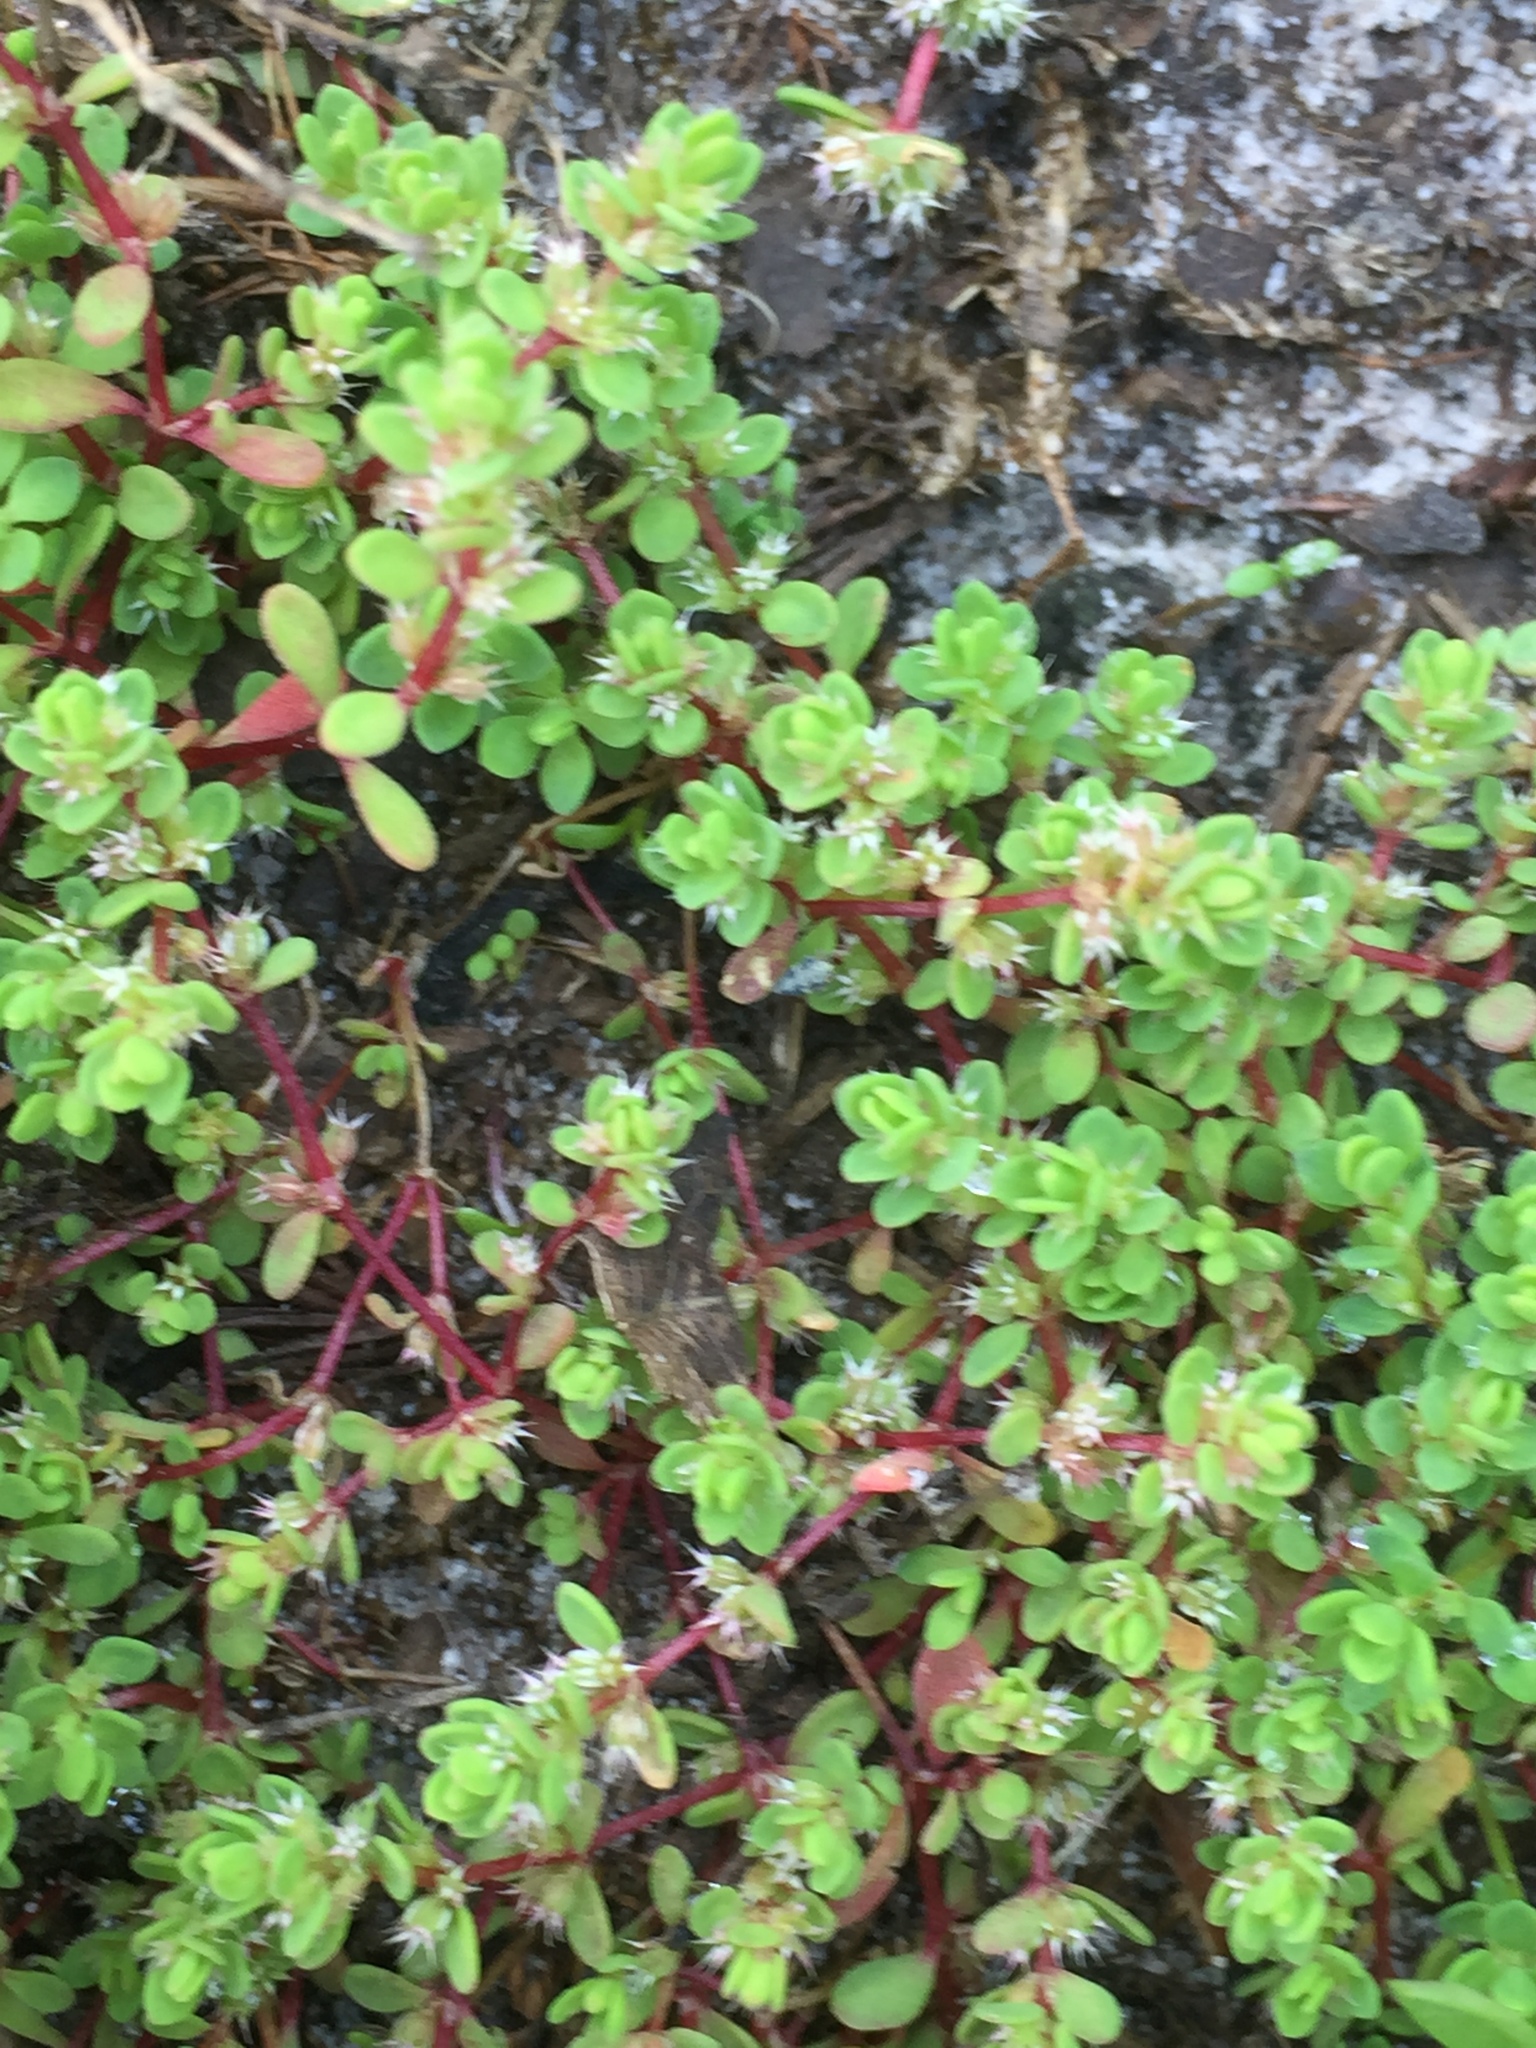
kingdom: Plantae
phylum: Tracheophyta
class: Magnoliopsida
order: Caryophyllales
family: Caryophyllaceae
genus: Illecebrum
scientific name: Illecebrum verticillatum
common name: Coral necklace
